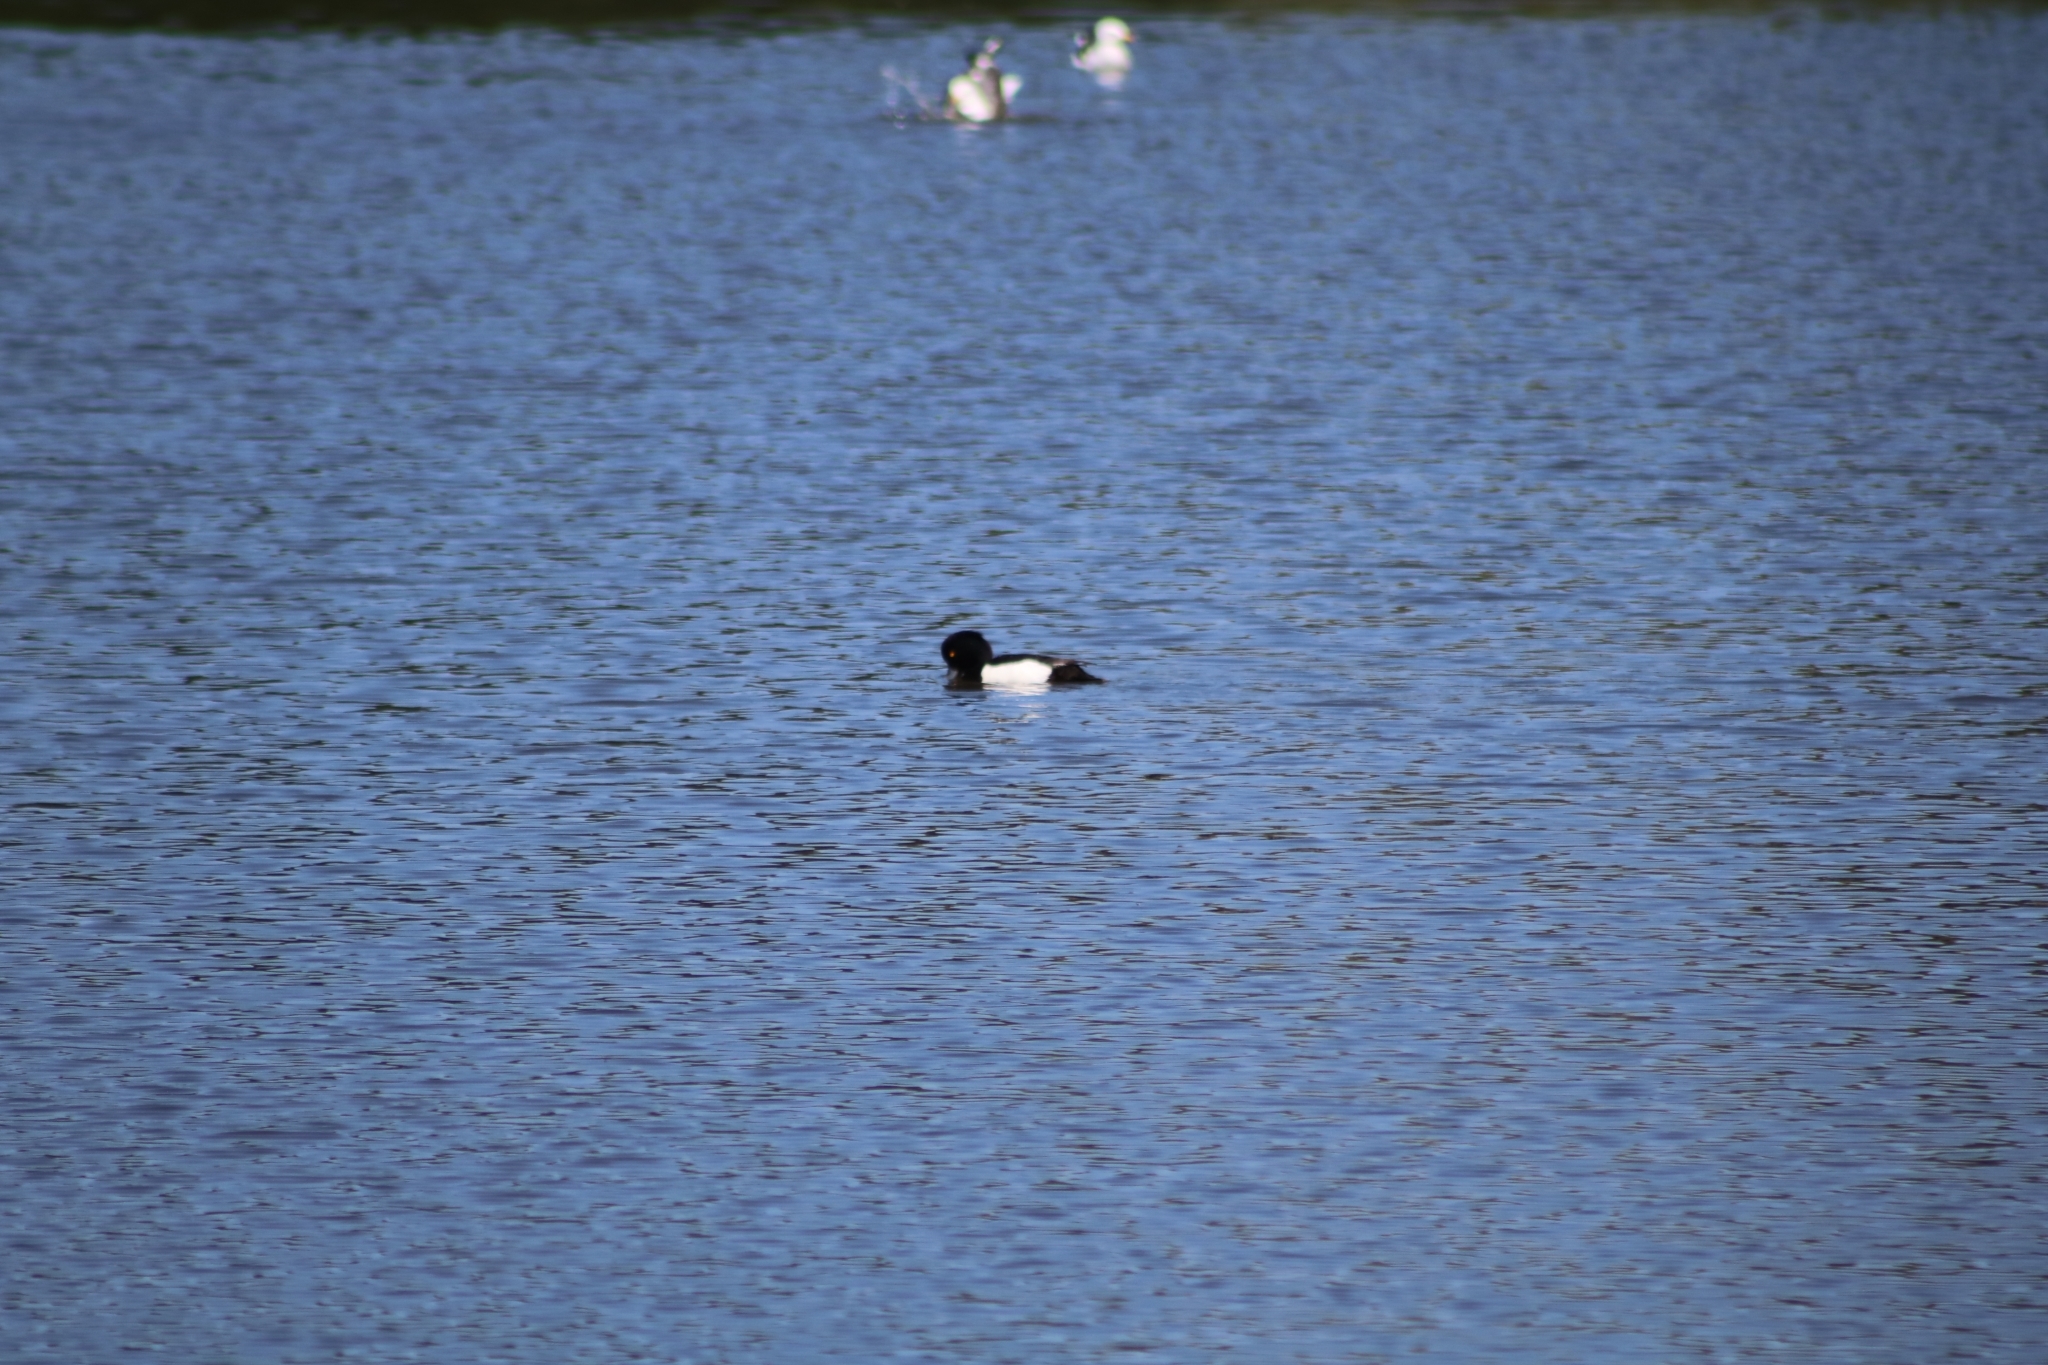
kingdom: Animalia
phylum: Chordata
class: Aves
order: Anseriformes
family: Anatidae
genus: Aythya
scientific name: Aythya fuligula
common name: Tufted duck
